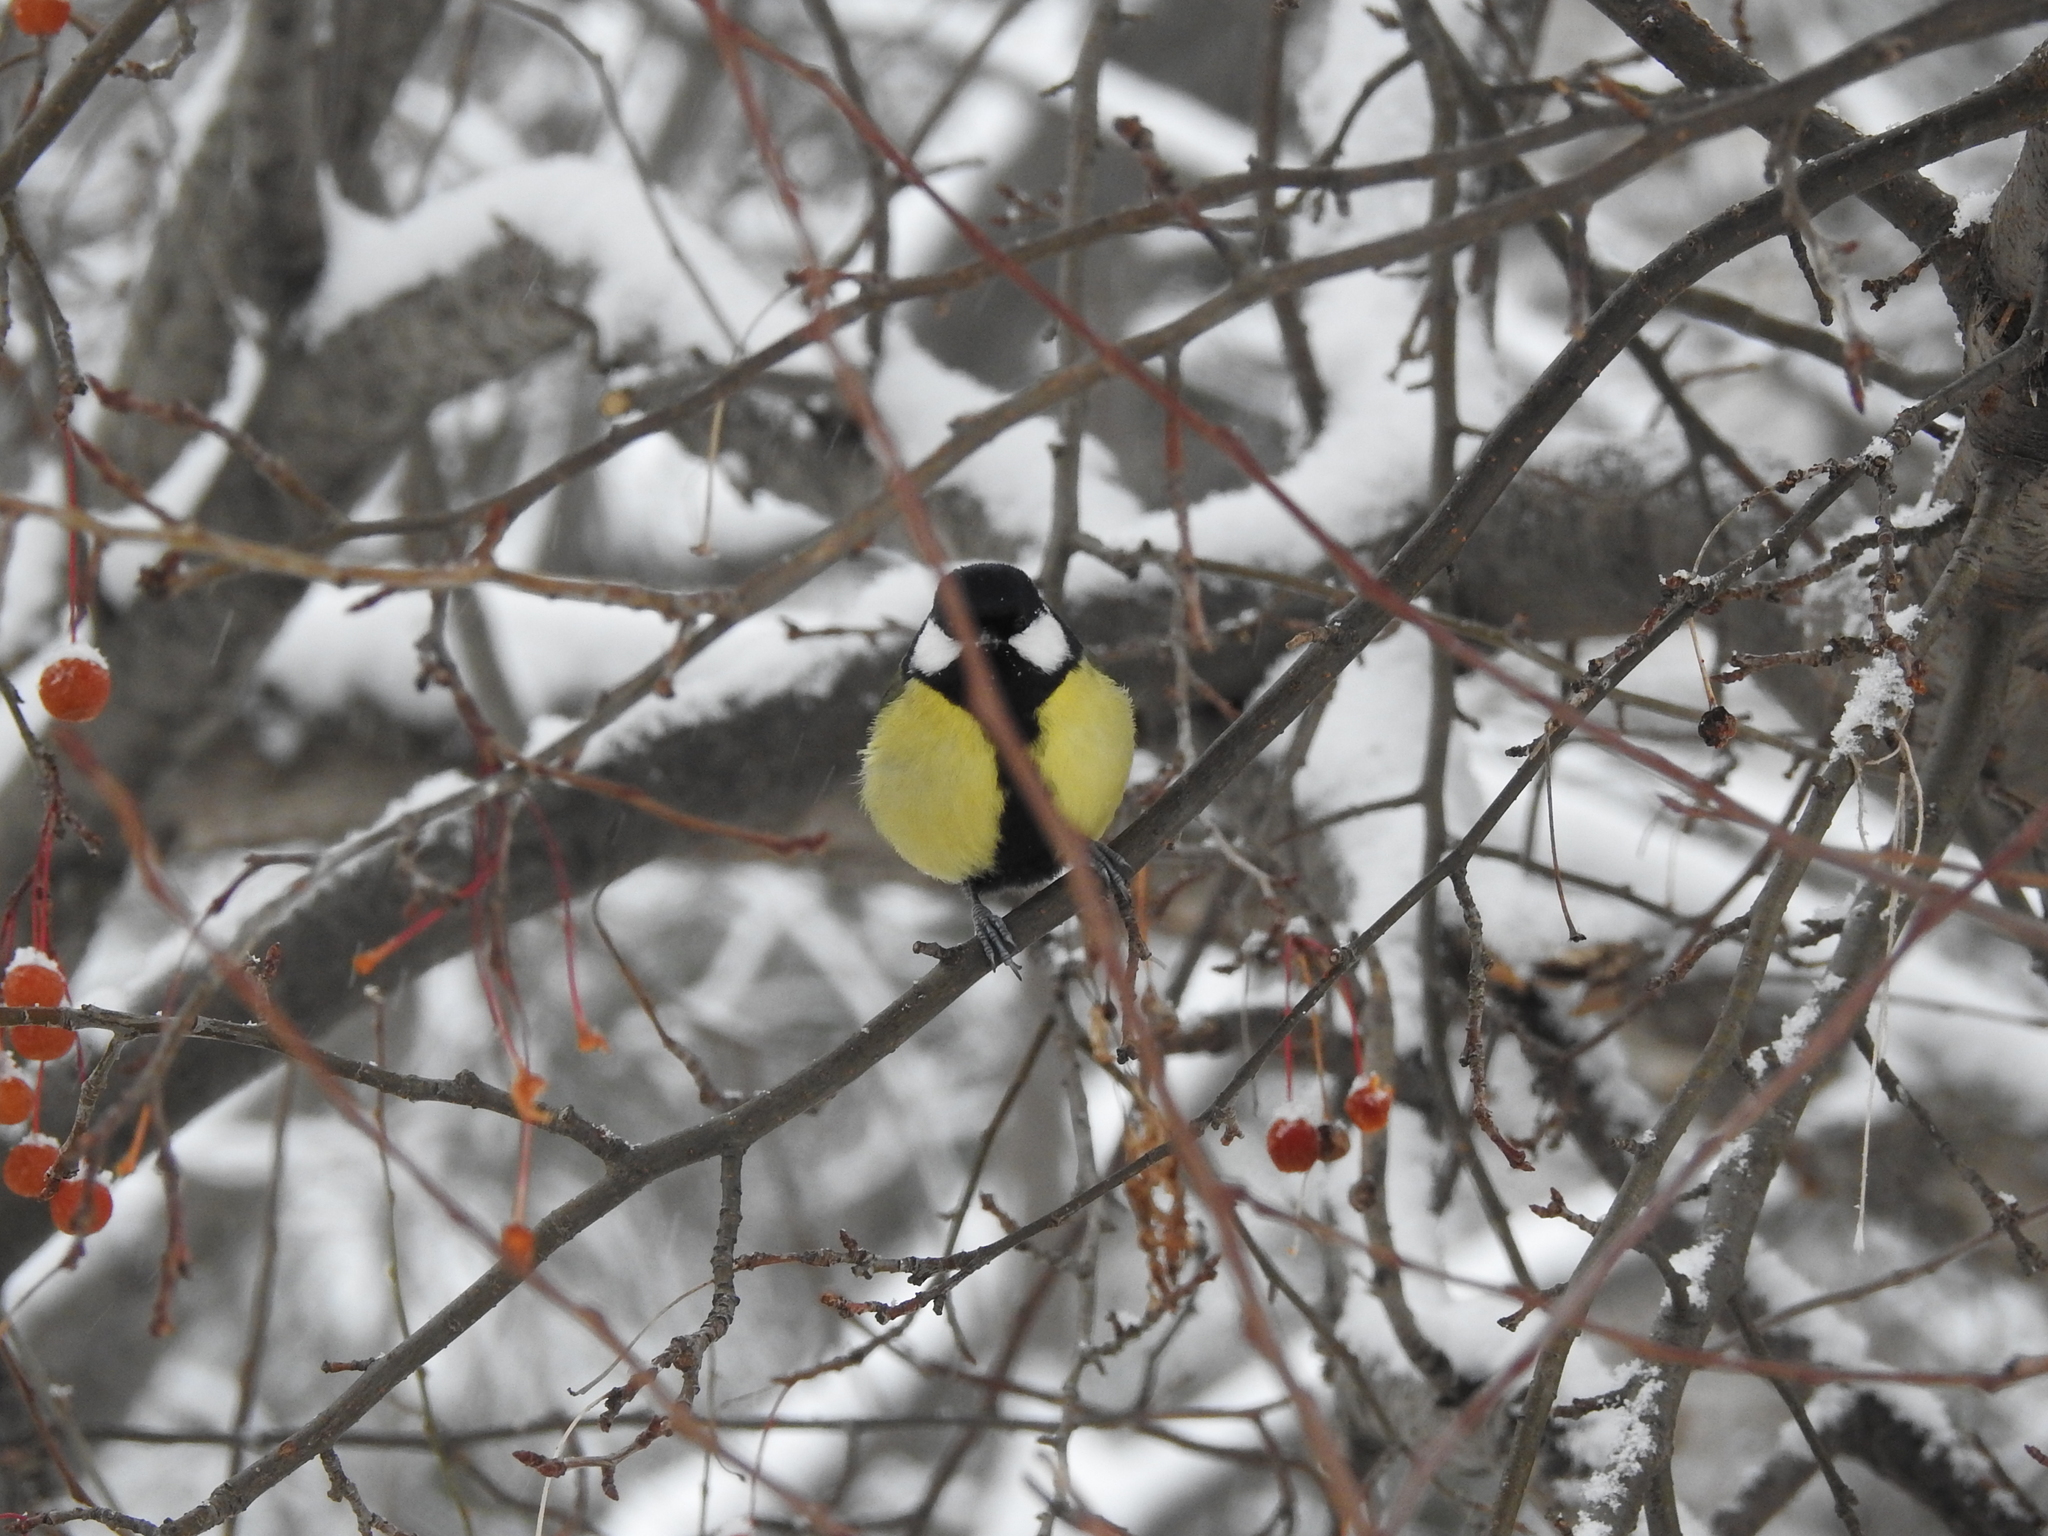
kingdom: Animalia
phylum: Chordata
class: Aves
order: Passeriformes
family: Paridae
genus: Parus
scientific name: Parus major
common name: Great tit
